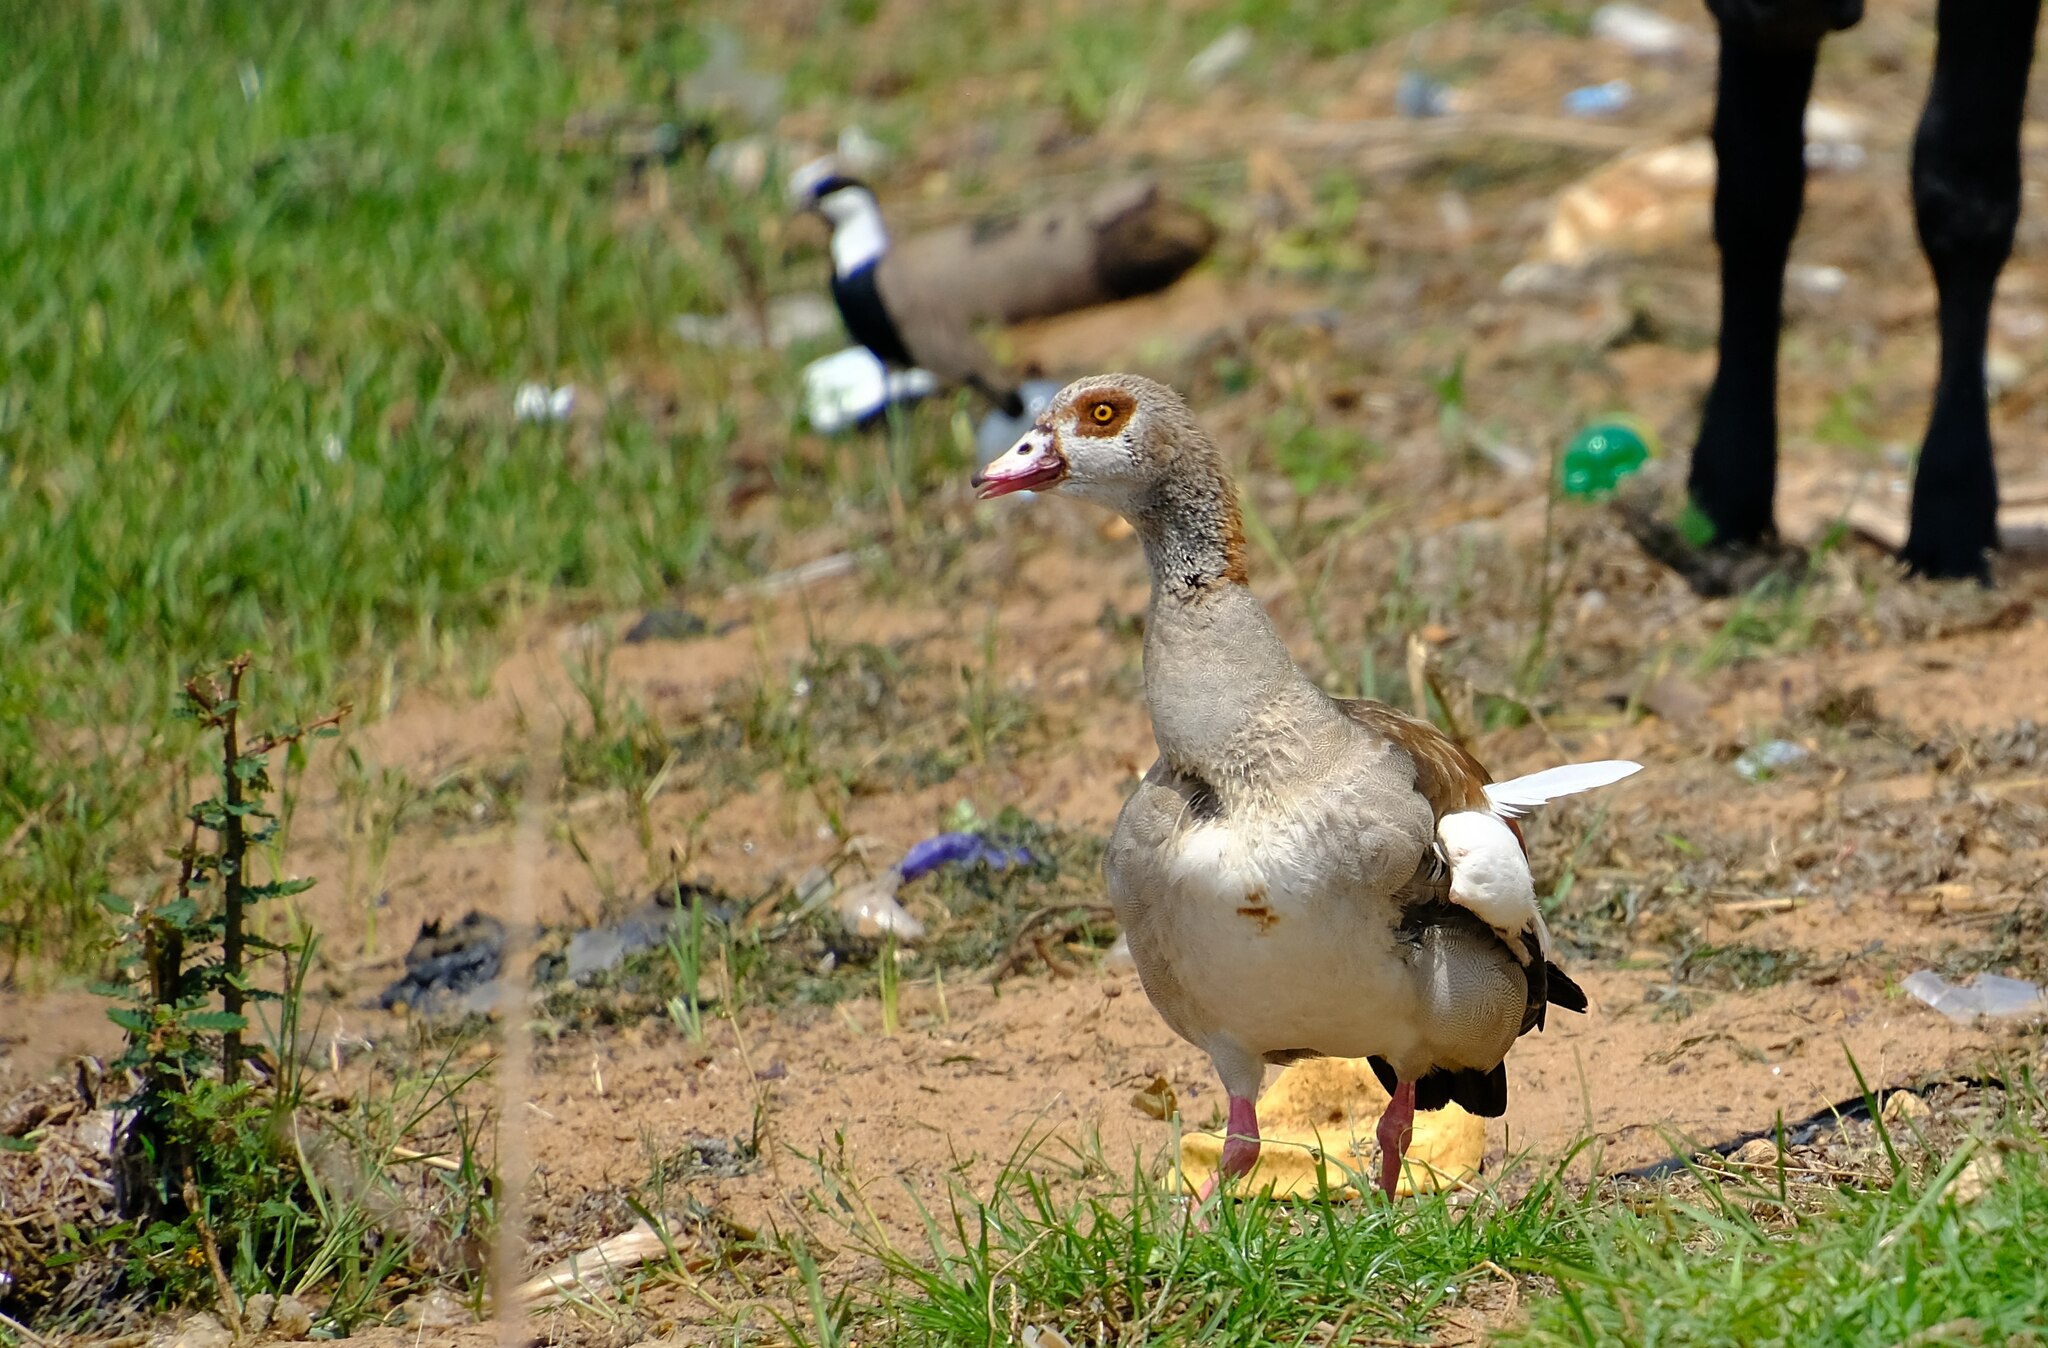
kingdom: Animalia
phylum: Chordata
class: Aves
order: Anseriformes
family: Anatidae
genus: Alopochen
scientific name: Alopochen aegyptiaca
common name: Egyptian goose
